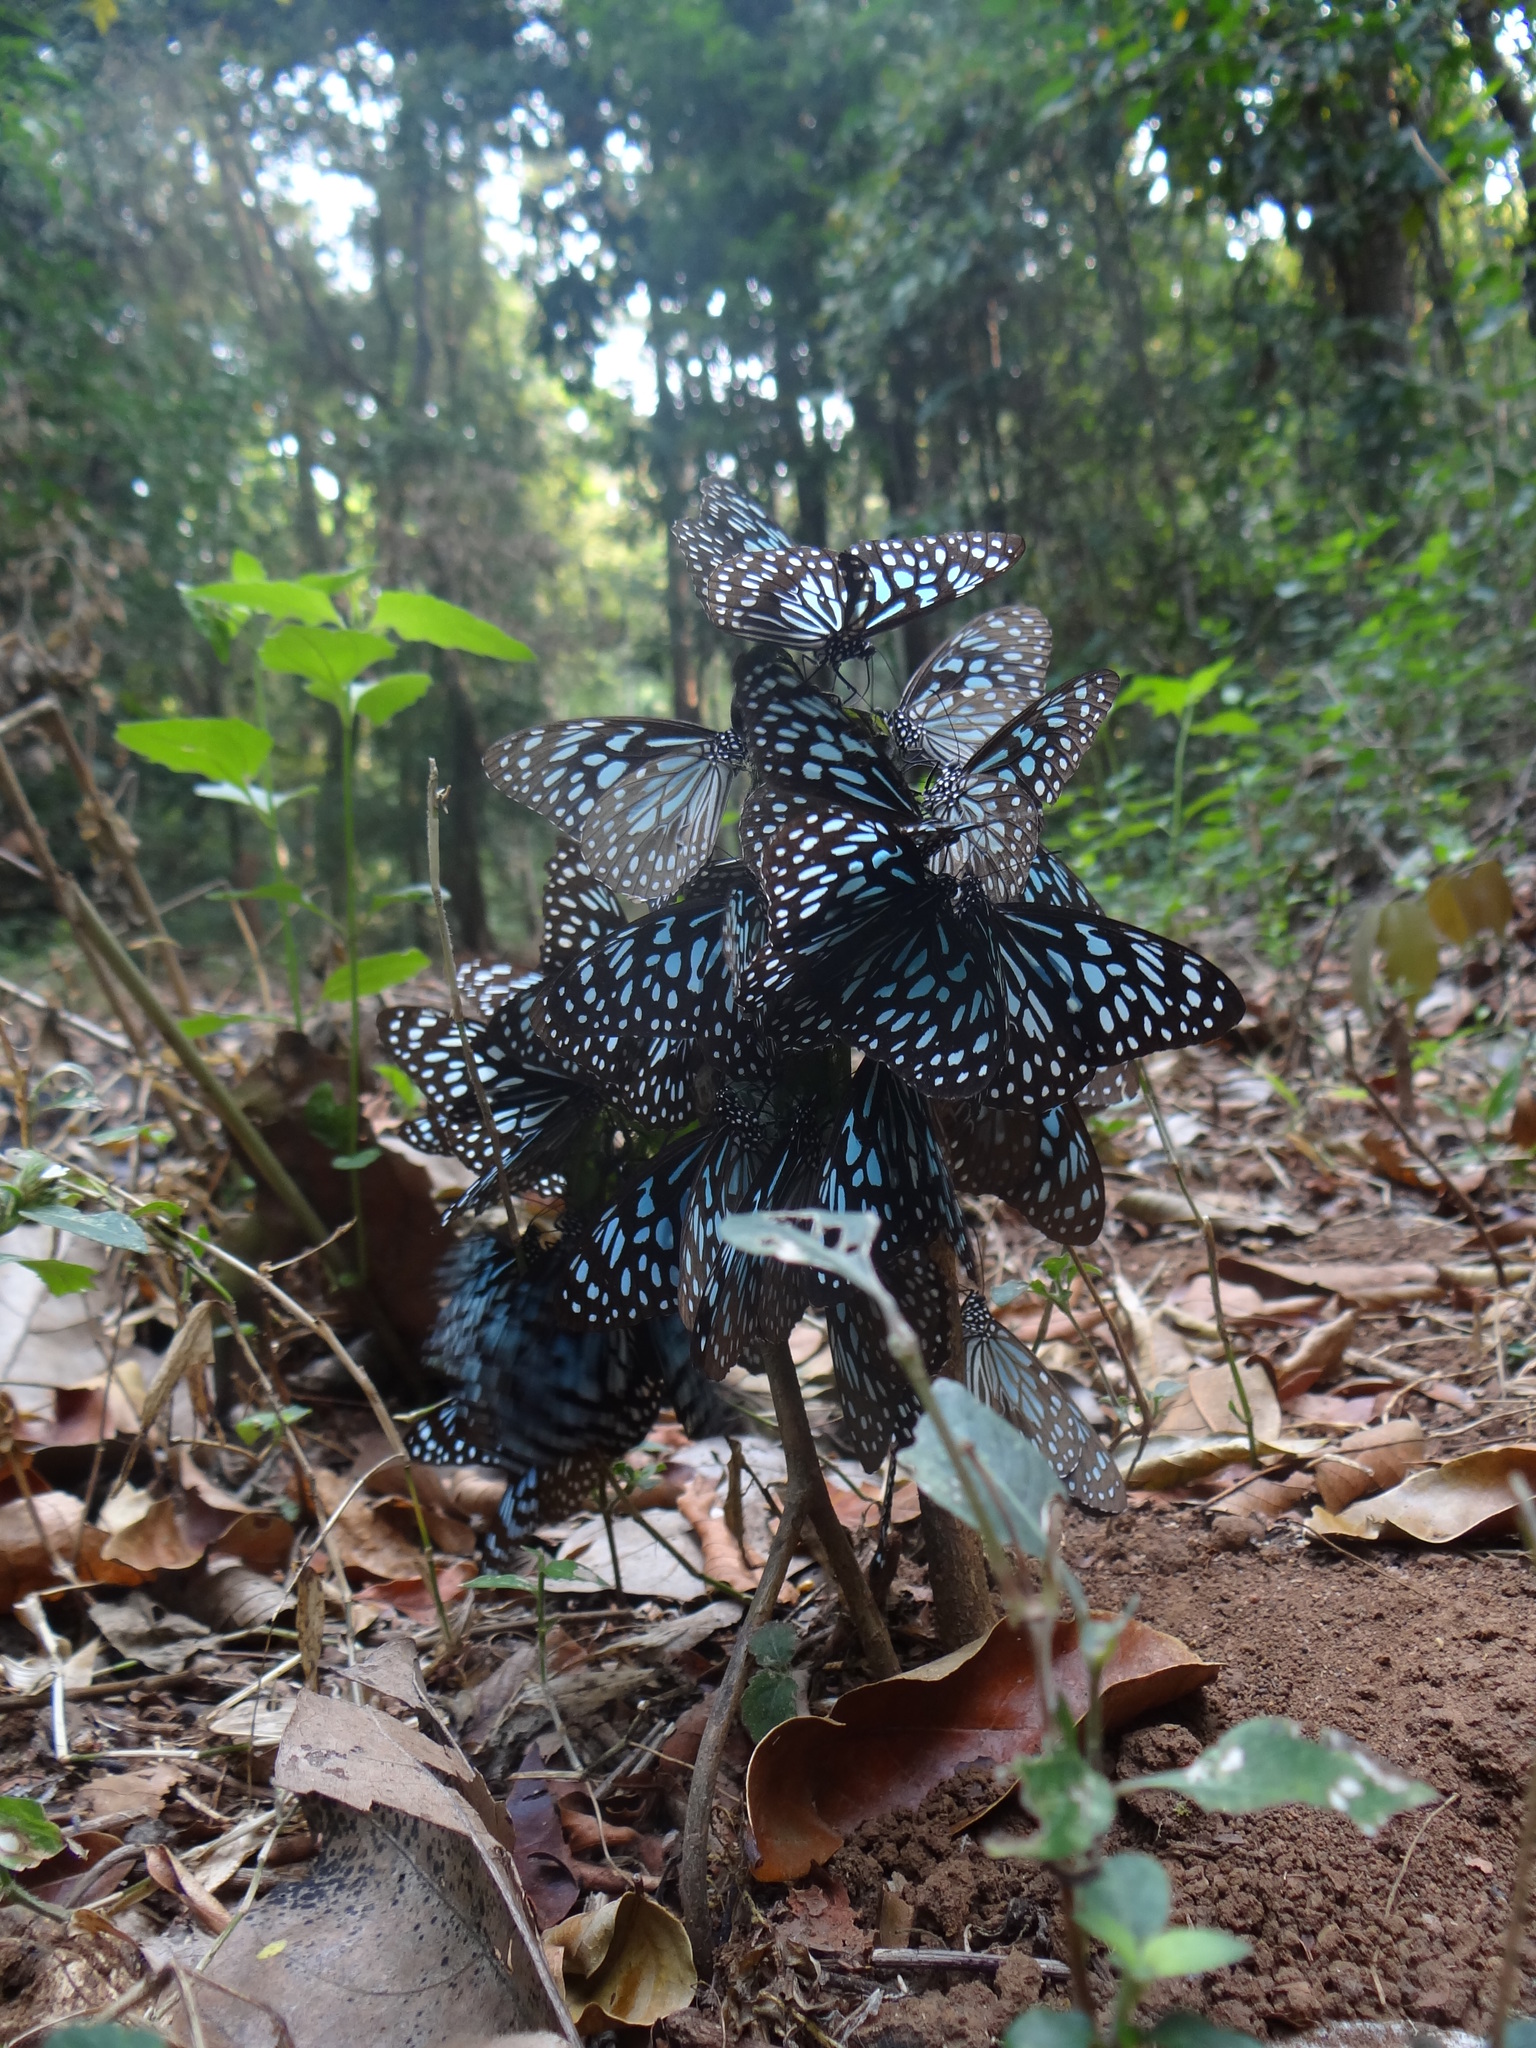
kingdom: Animalia
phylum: Arthropoda
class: Insecta
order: Lepidoptera
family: Nymphalidae
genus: Tirumala
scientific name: Tirumala septentrionis
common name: Dark blue tiger butterfly
